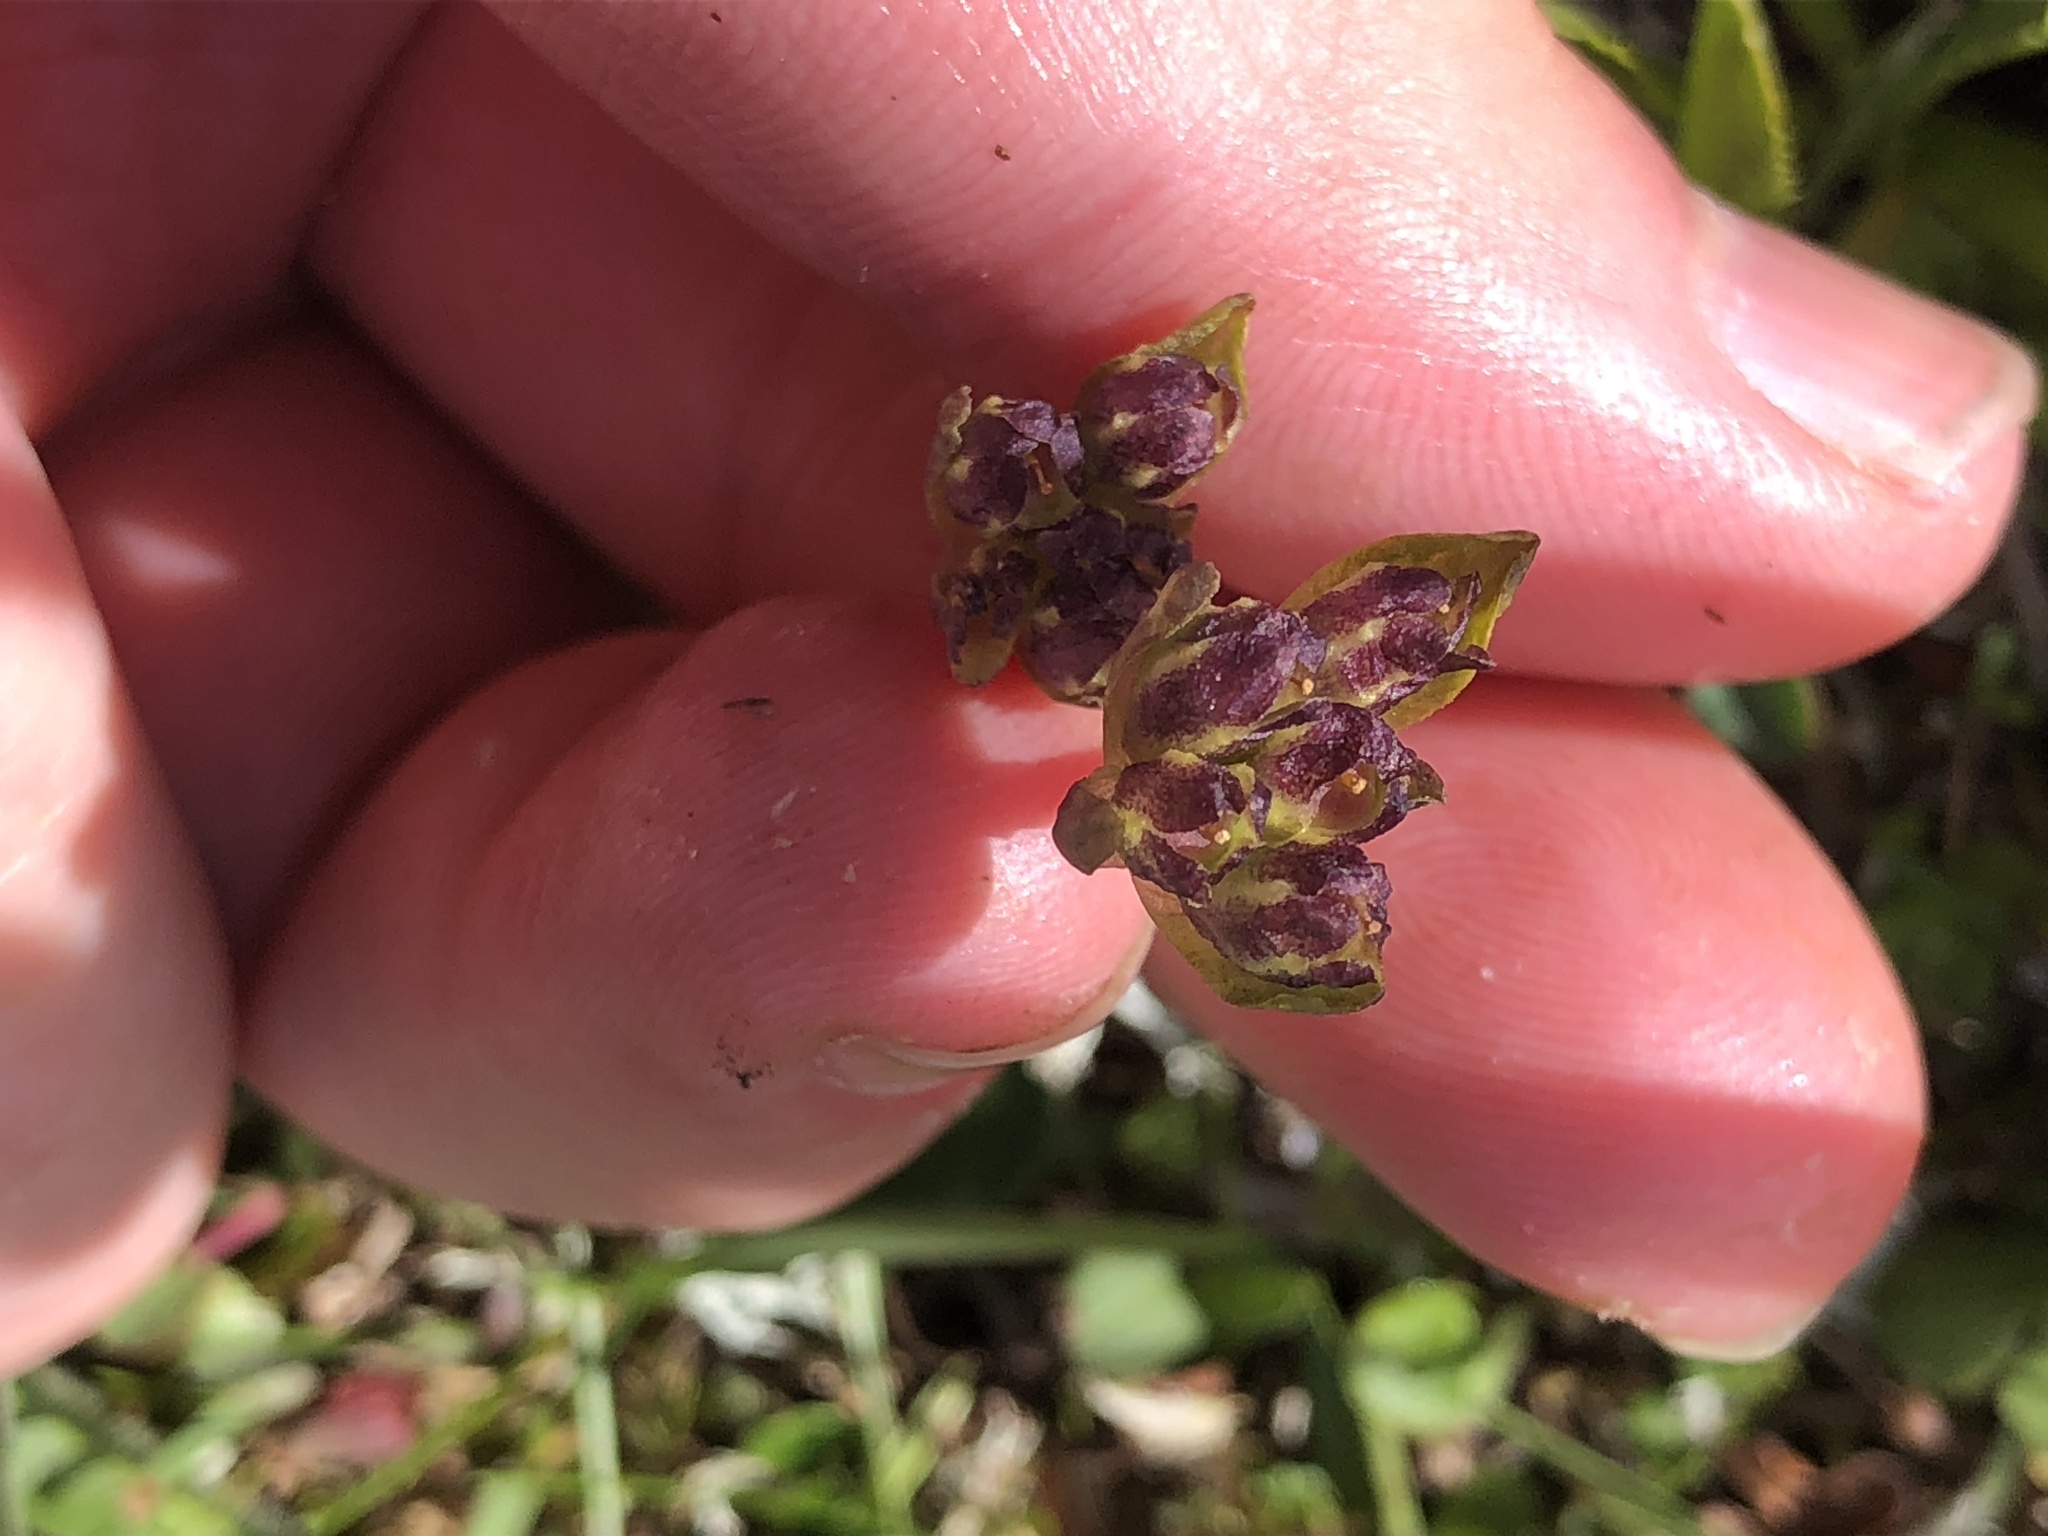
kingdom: Plantae
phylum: Tracheophyta
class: Magnoliopsida
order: Ericales
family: Primulaceae
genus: Primula
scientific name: Primula glutinosa
